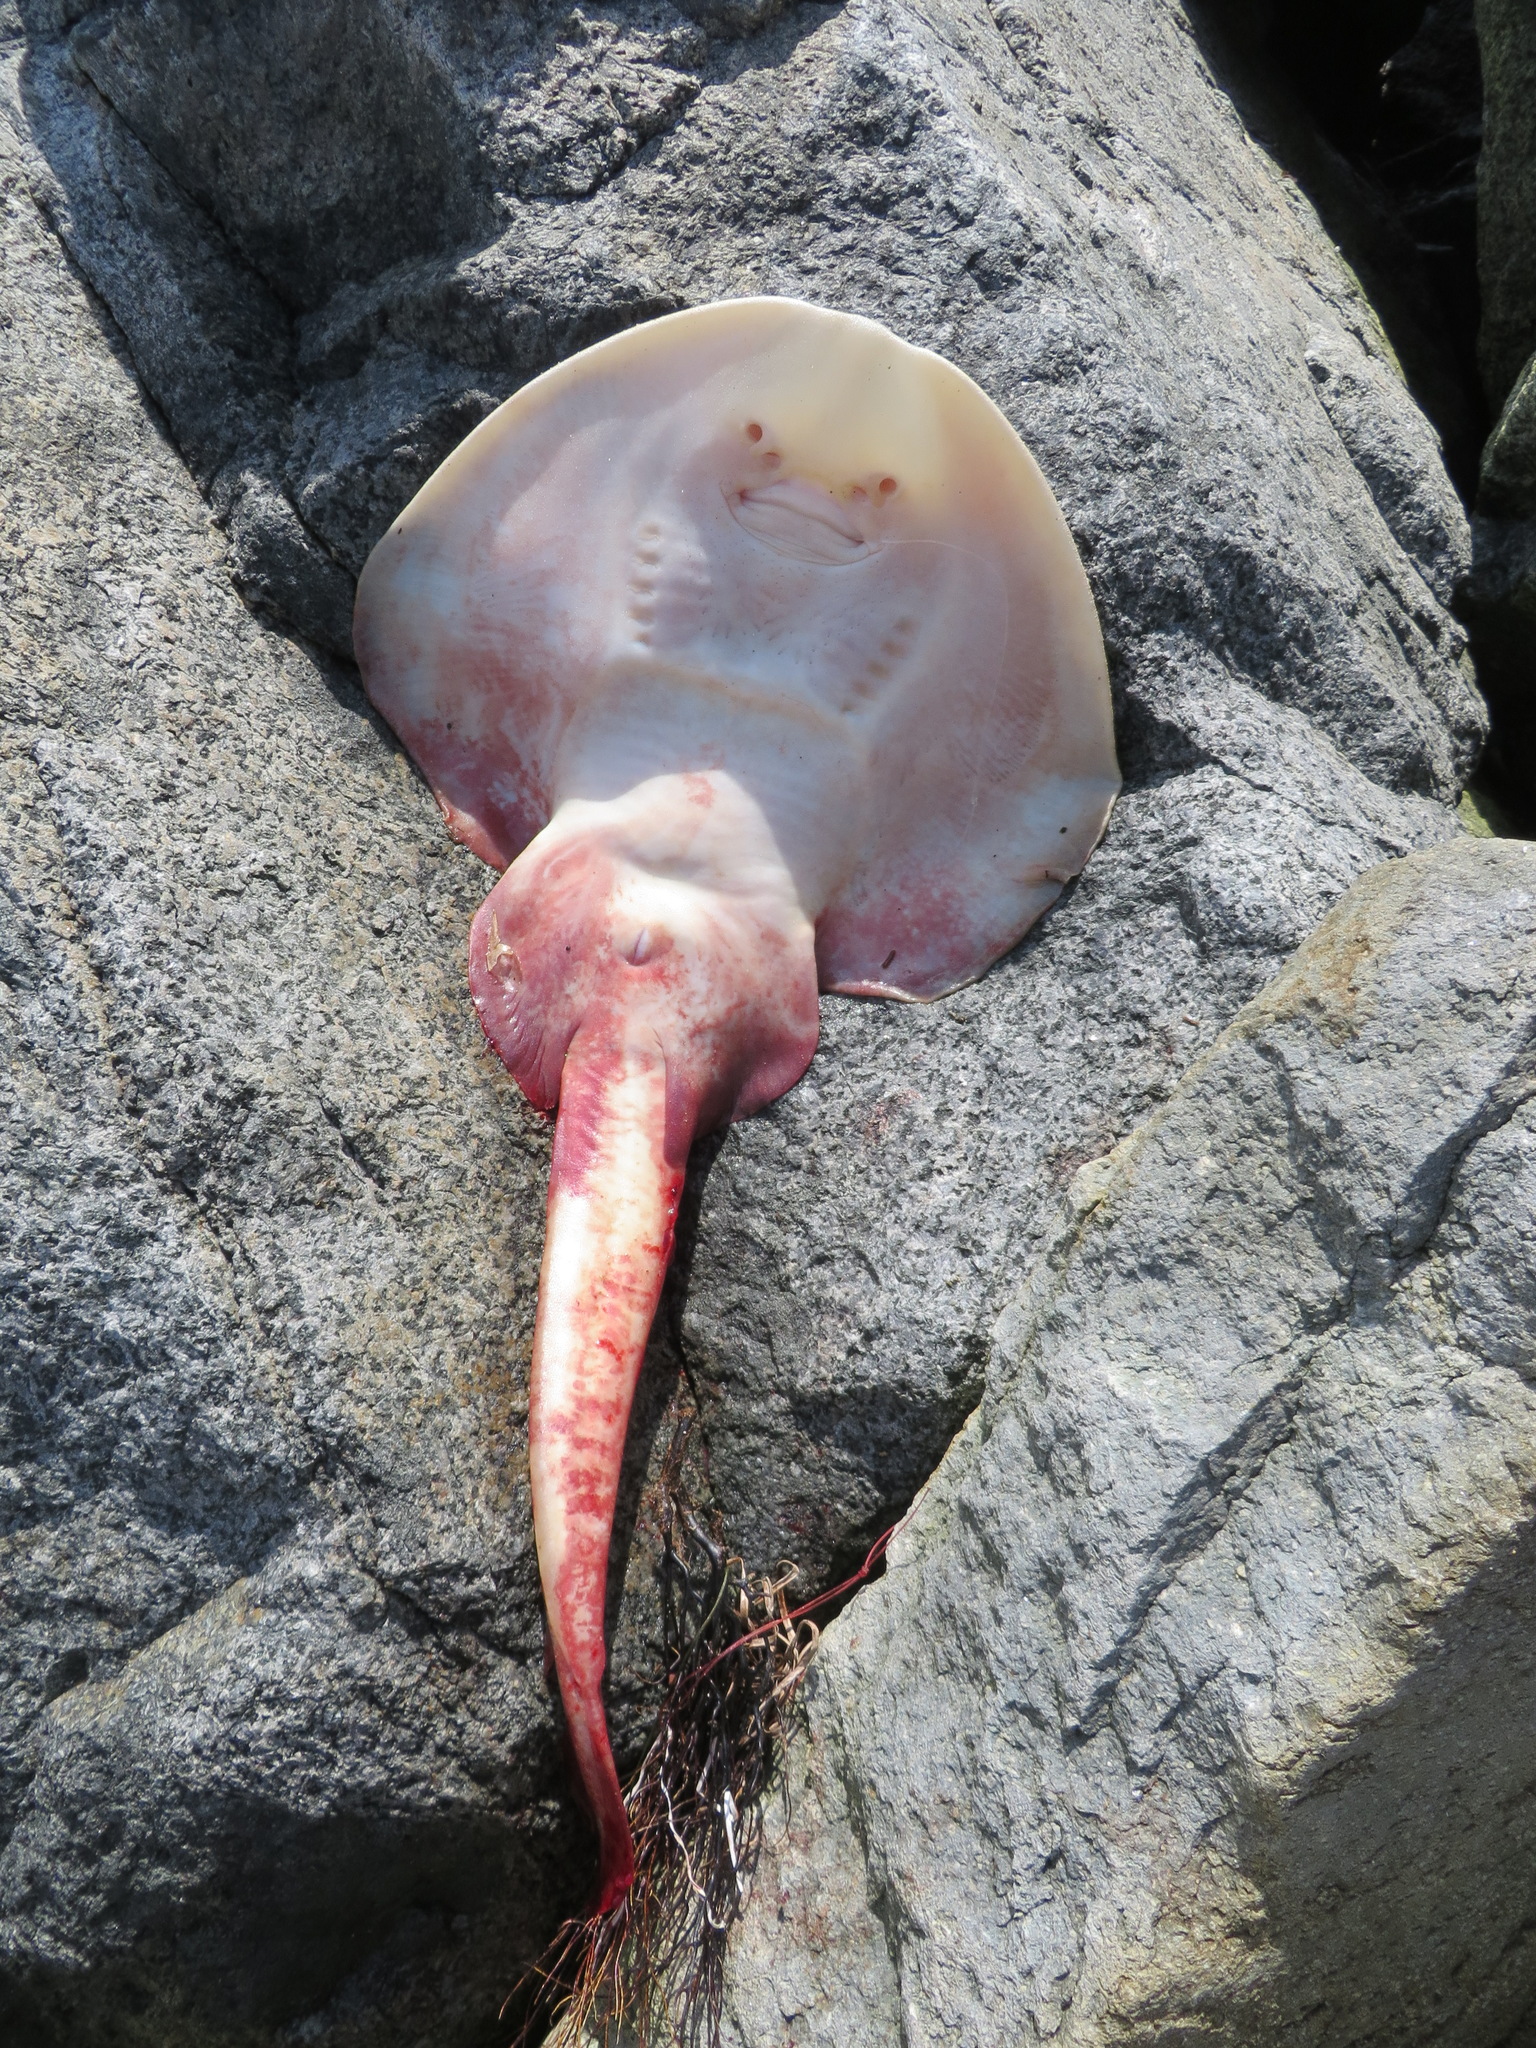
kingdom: Animalia
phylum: Chordata
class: Elasmobranchii
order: Rhinopristiformes
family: Rhinobatidae
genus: Platyrhinoidis
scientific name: Platyrhinoidis triseriata
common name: Thornback
